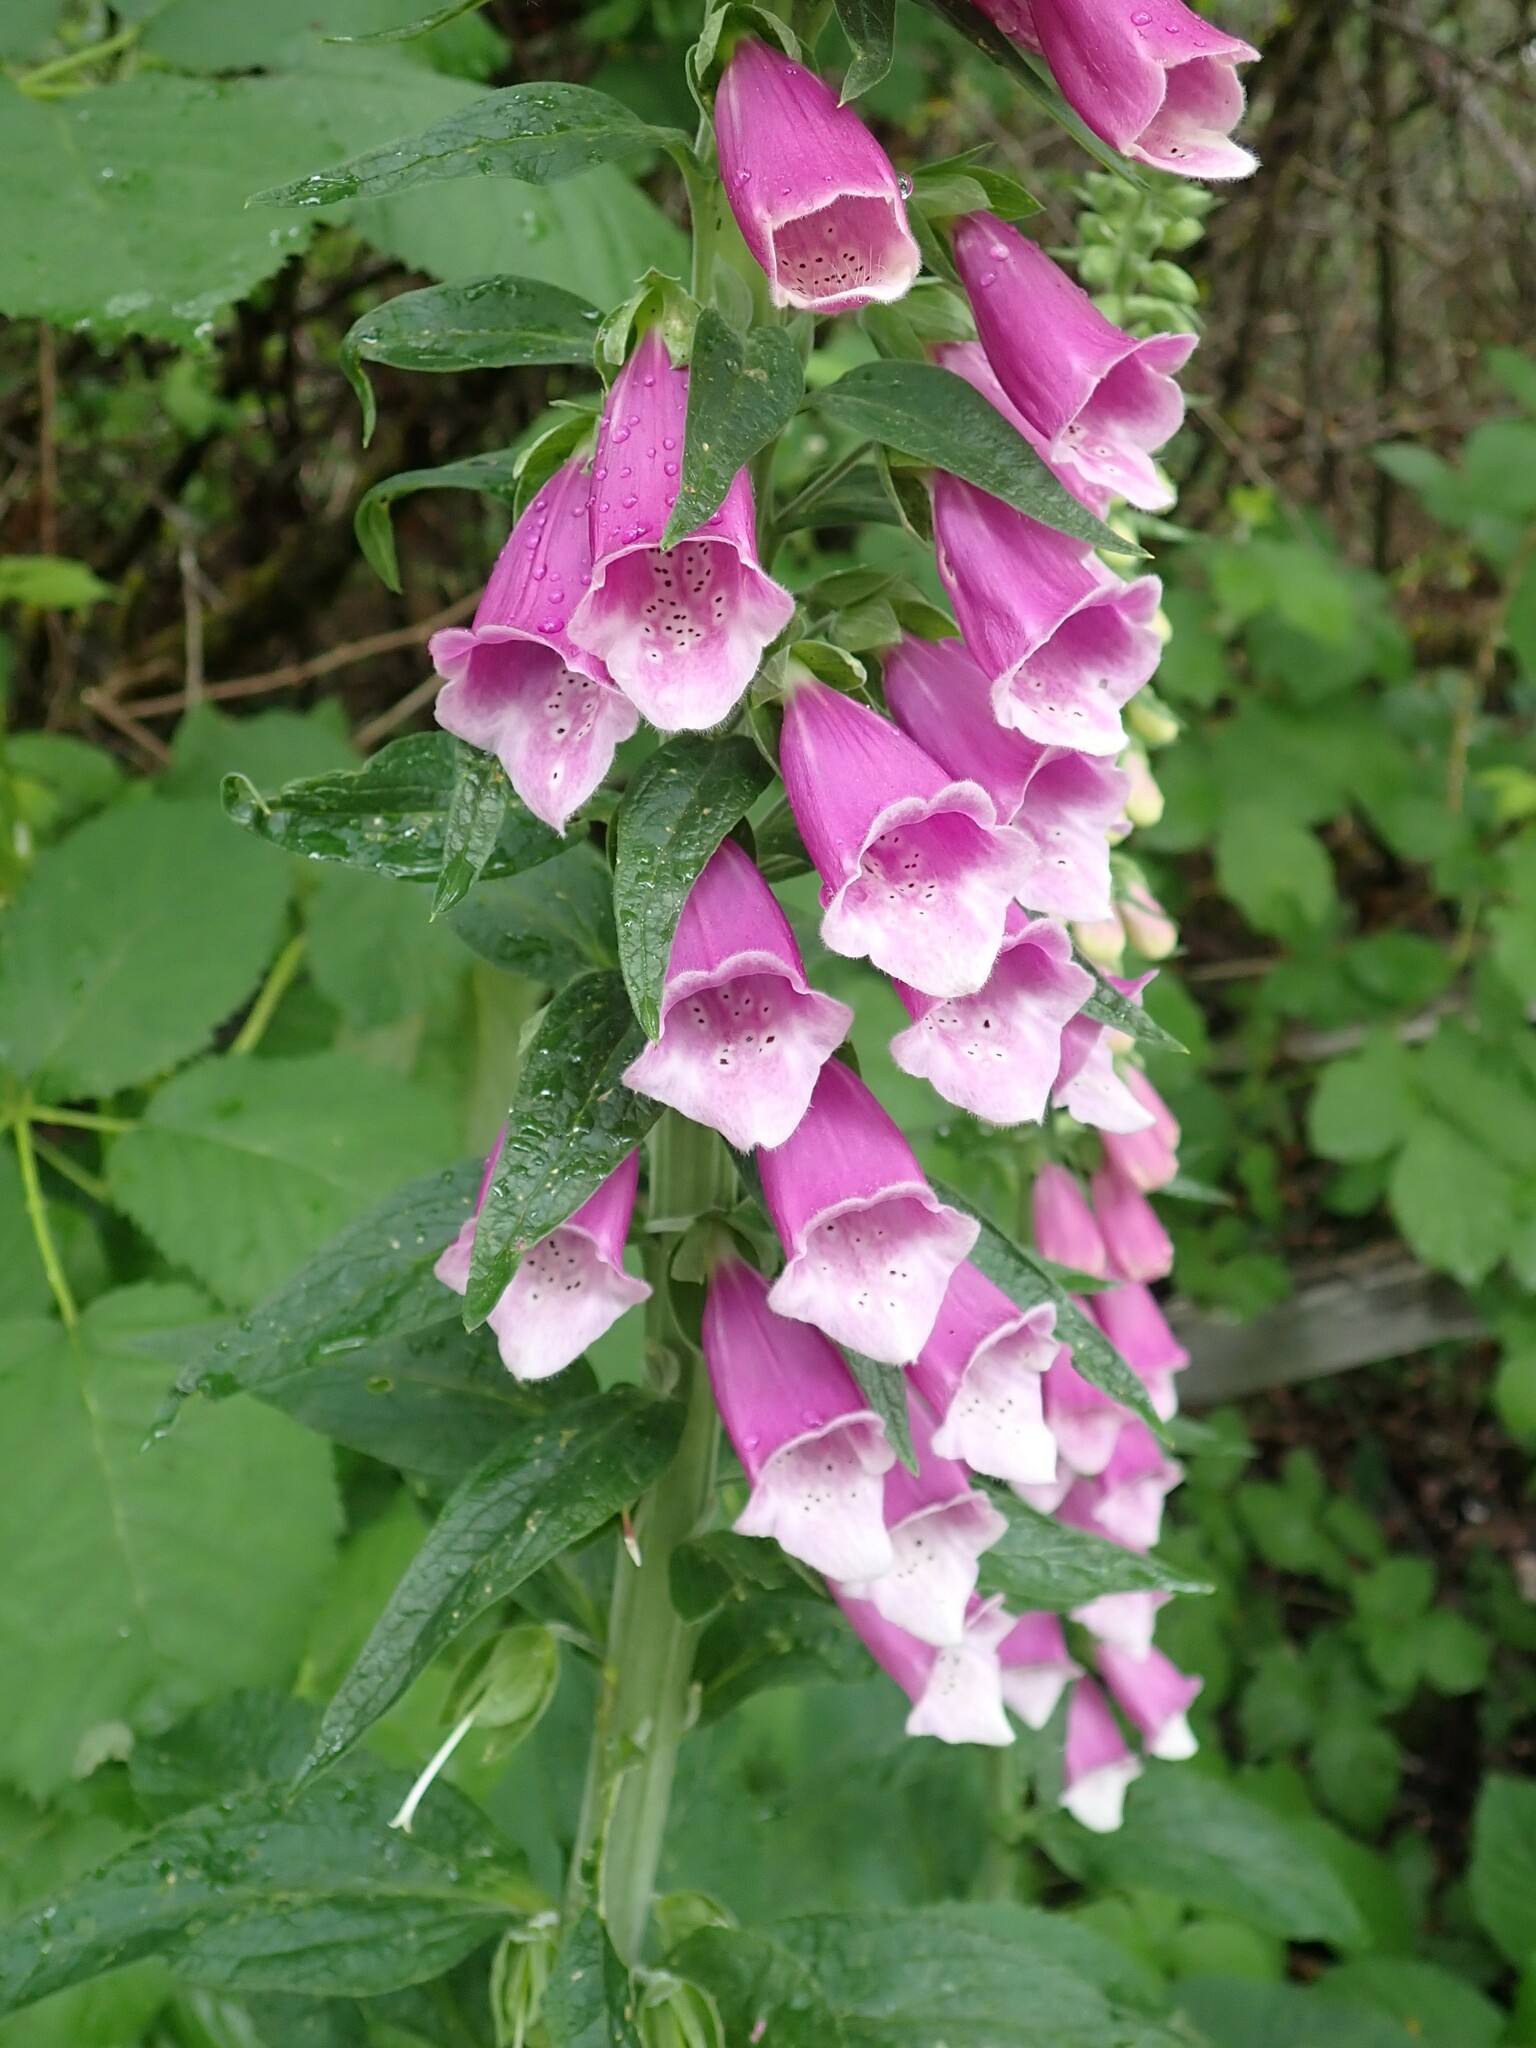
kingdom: Plantae
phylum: Tracheophyta
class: Magnoliopsida
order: Lamiales
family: Plantaginaceae
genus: Digitalis
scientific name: Digitalis purpurea
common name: Foxglove
